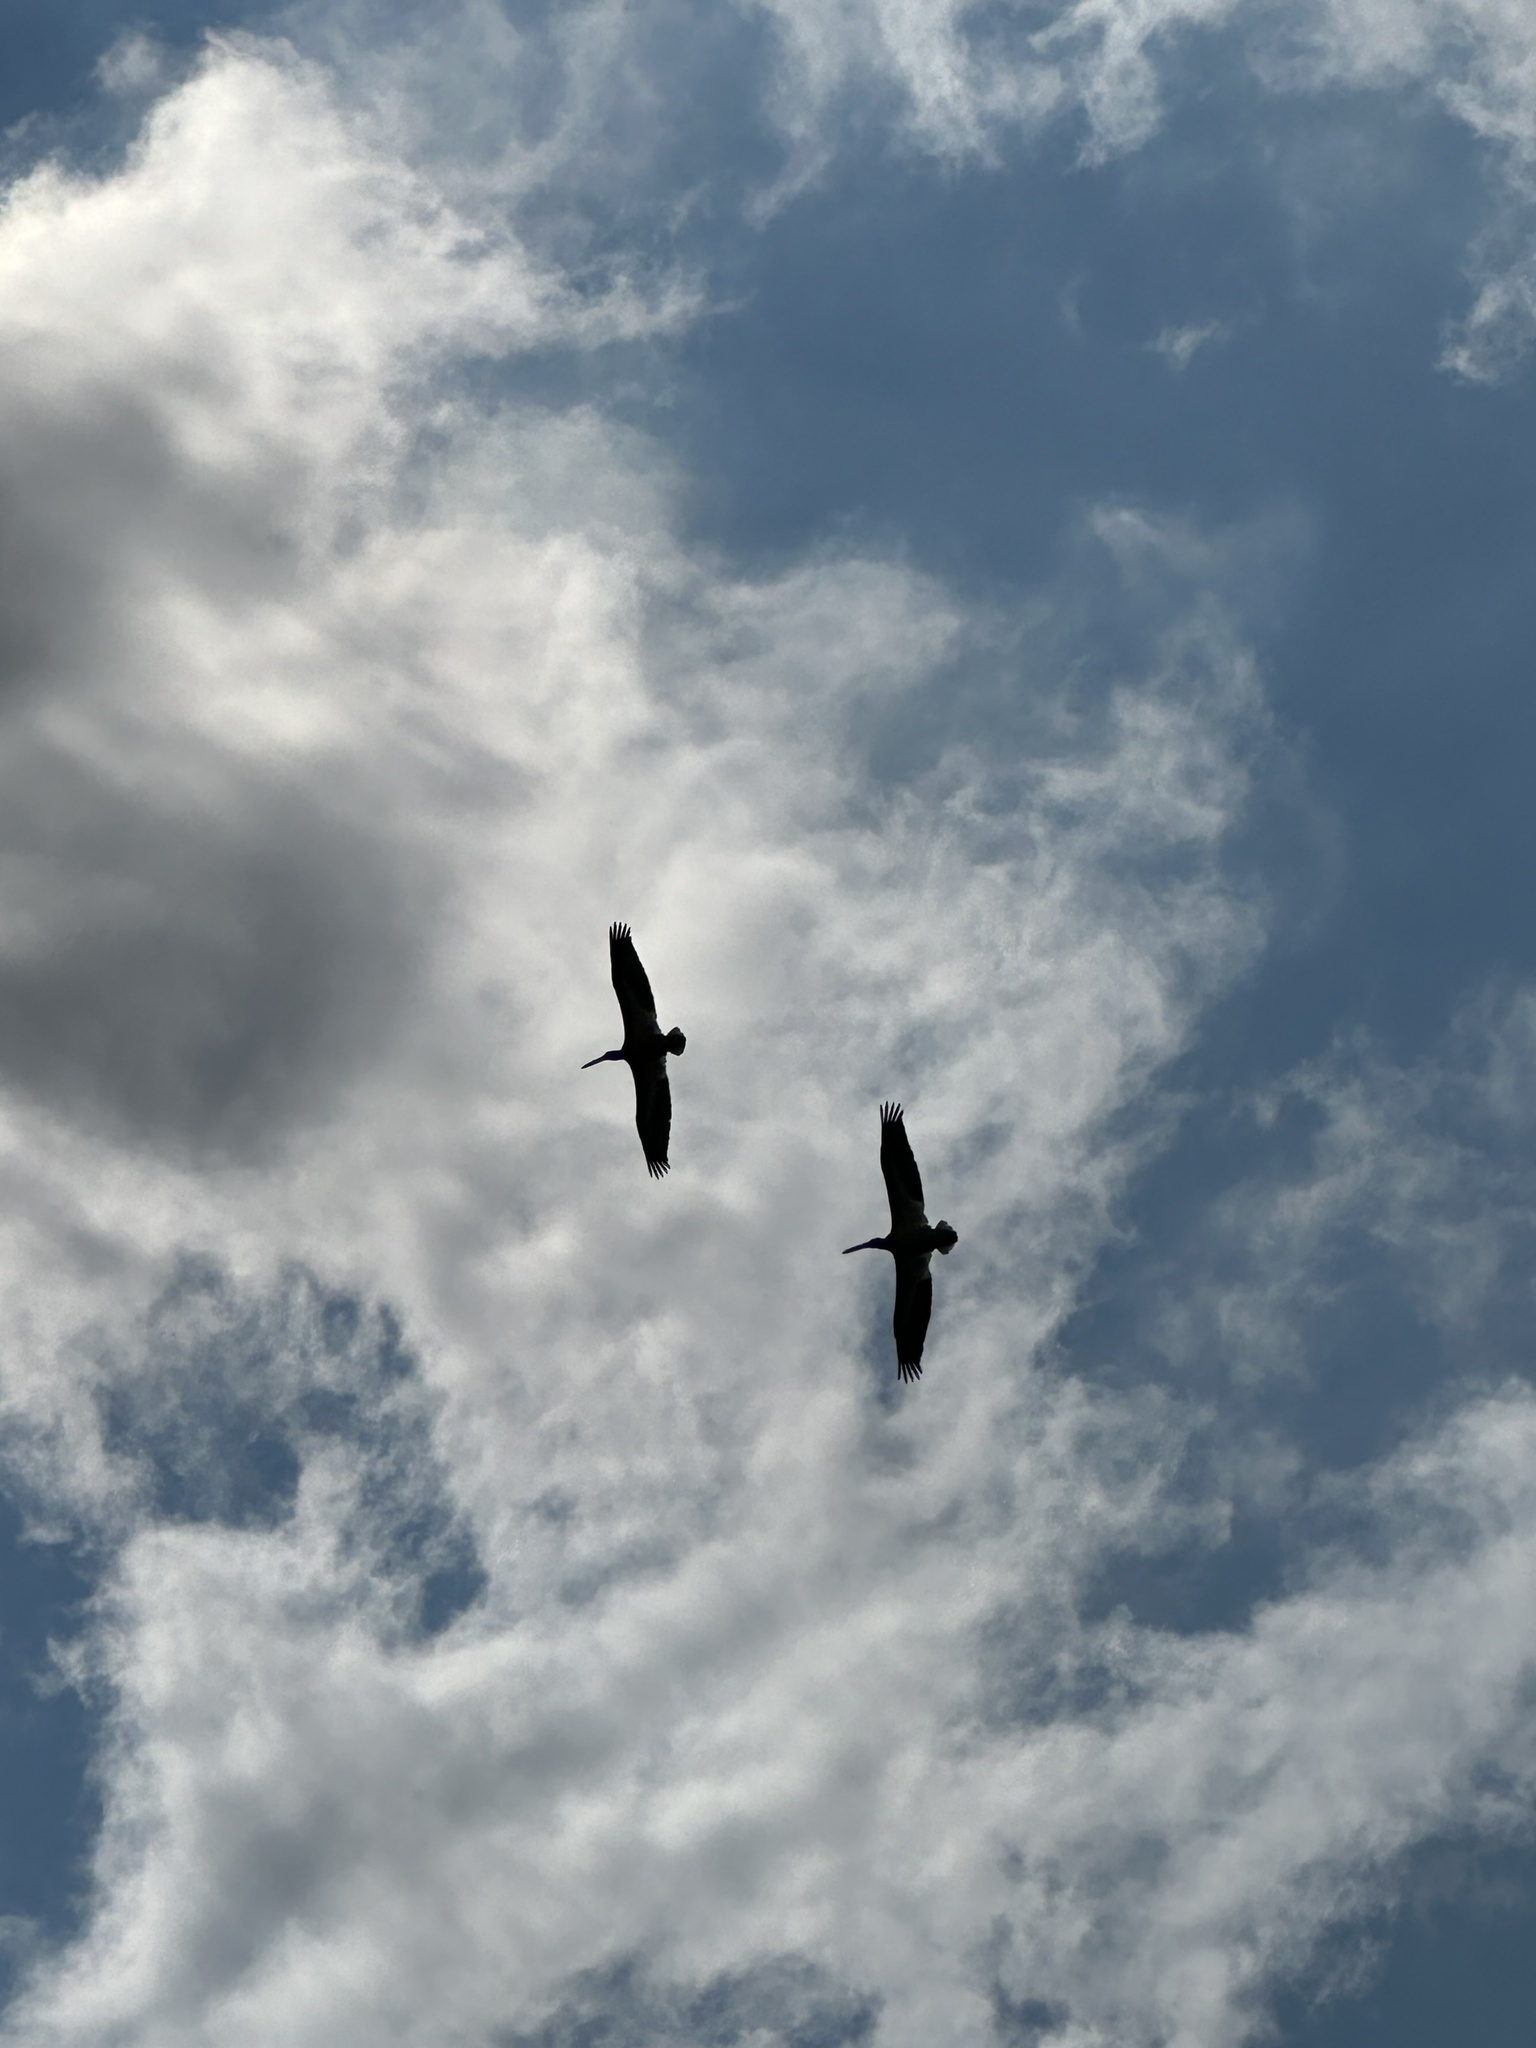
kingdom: Animalia
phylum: Chordata
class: Aves
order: Pelecaniformes
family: Pelecanidae
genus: Pelecanus
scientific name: Pelecanus erythrorhynchos
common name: American white pelican
